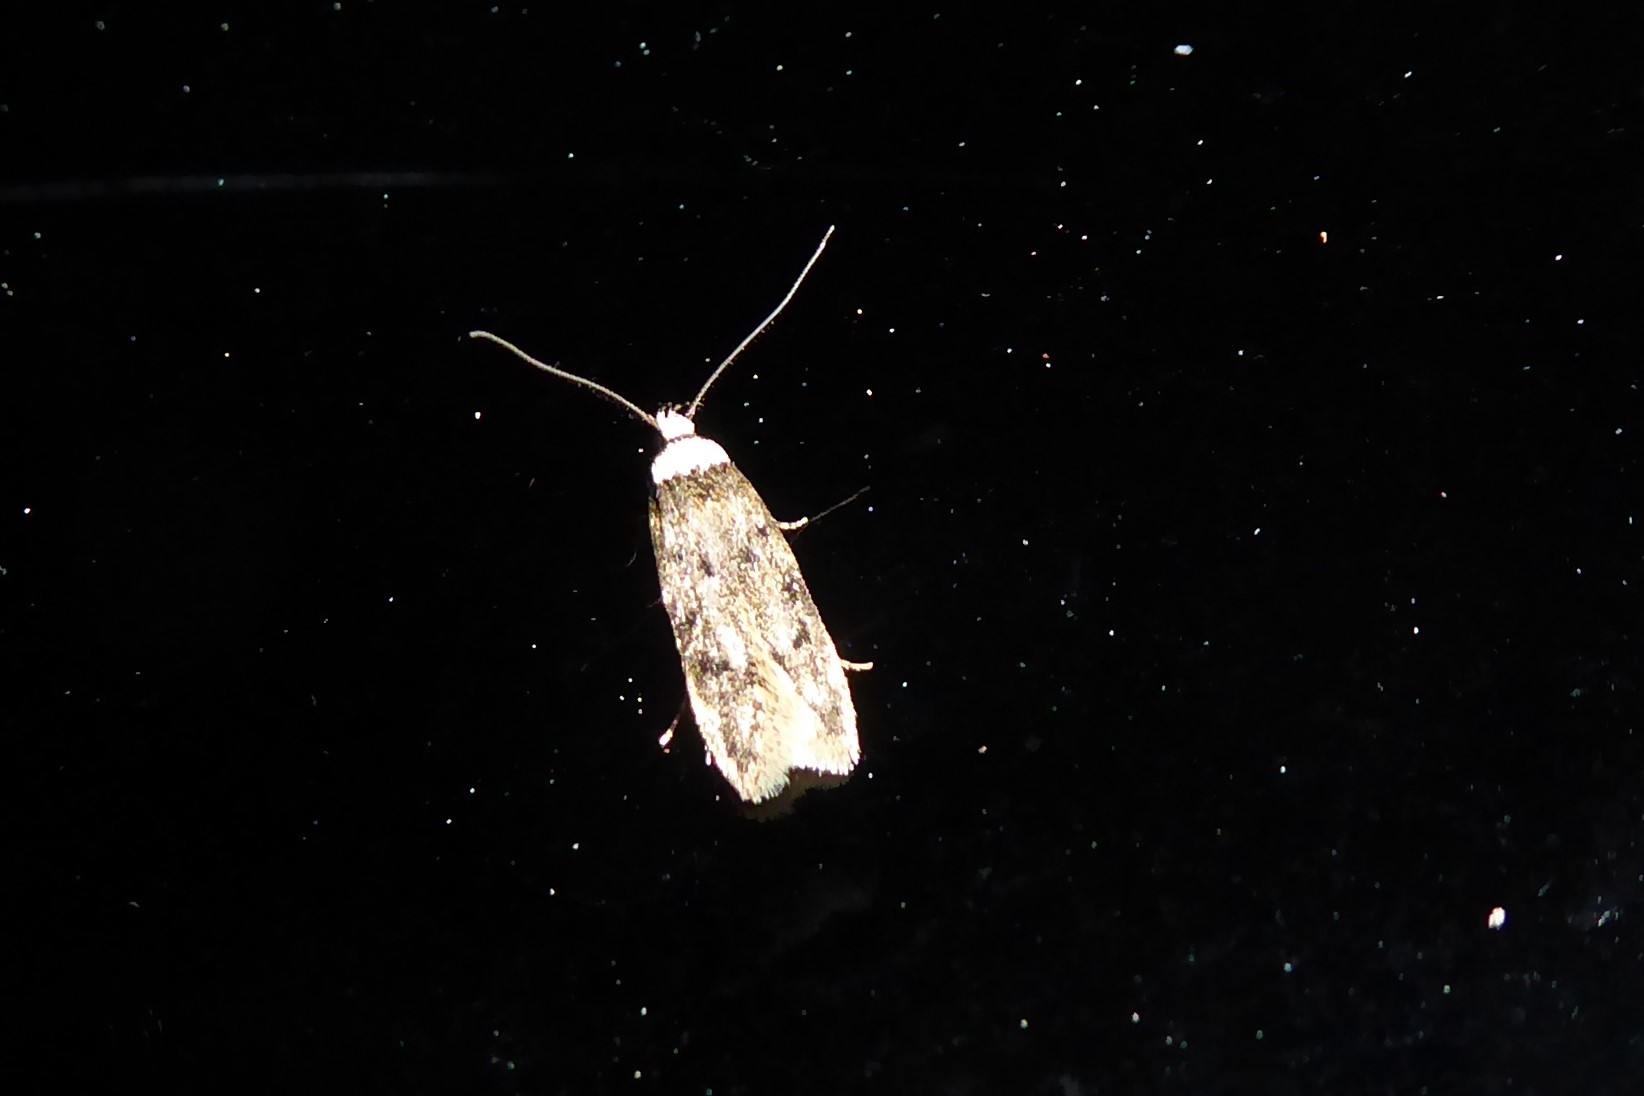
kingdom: Animalia
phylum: Arthropoda
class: Insecta
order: Lepidoptera
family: Oecophoridae
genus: Endrosis
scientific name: Endrosis sarcitrella
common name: White-shouldered house moth
